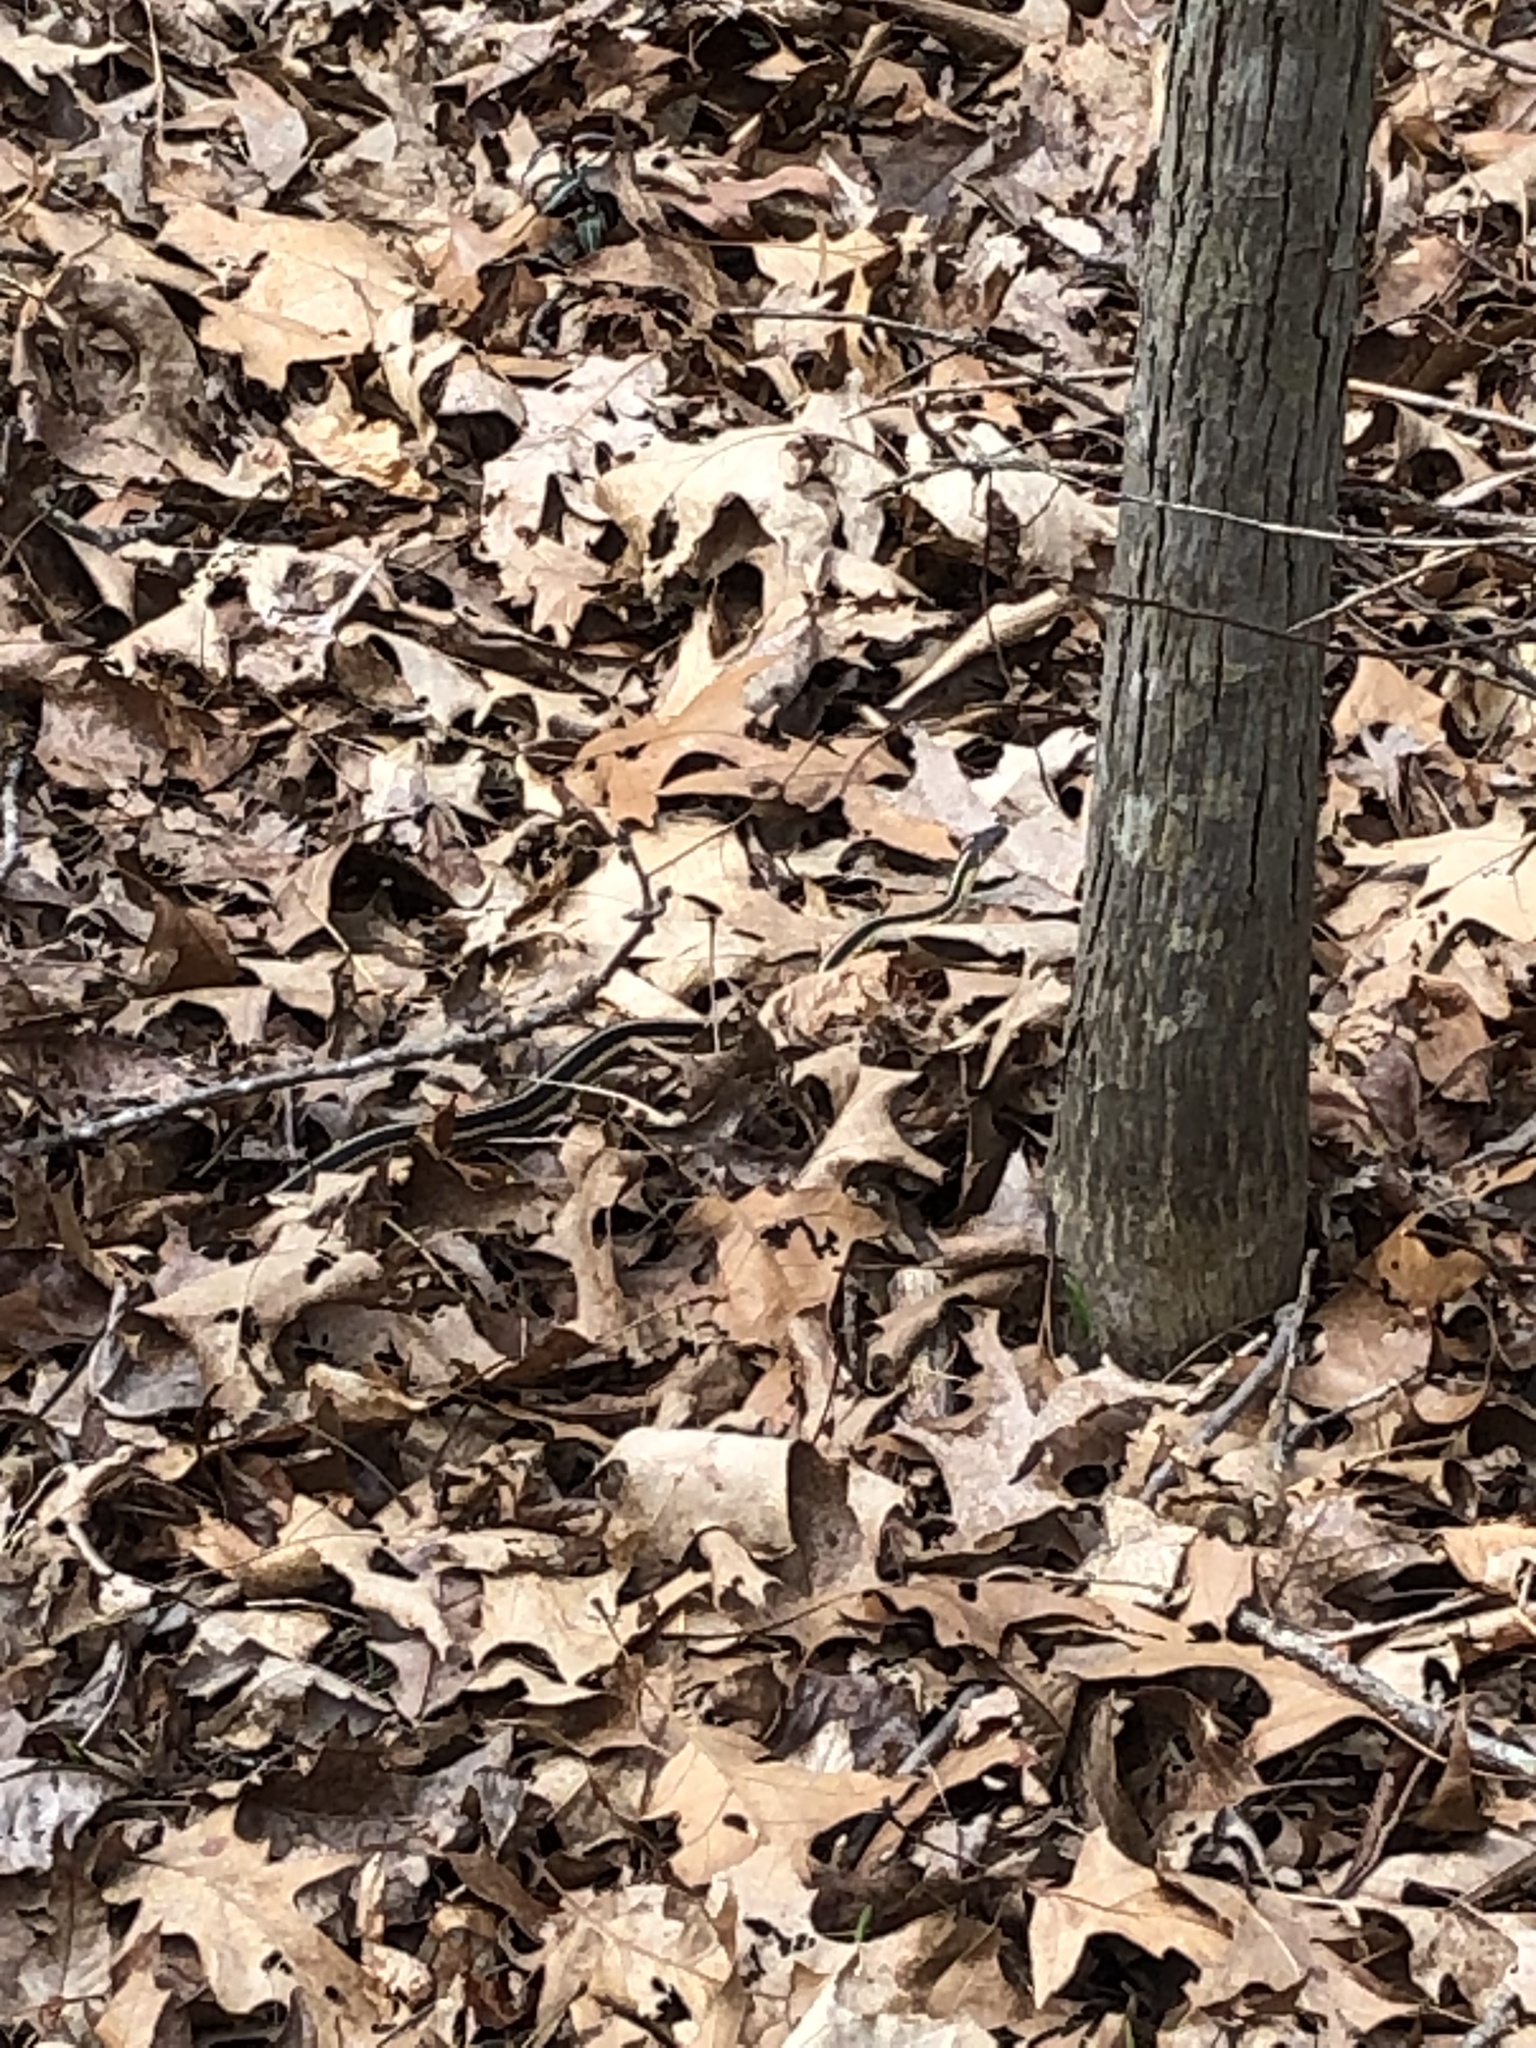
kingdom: Animalia
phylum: Chordata
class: Squamata
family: Colubridae
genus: Thamnophis
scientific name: Thamnophis sirtalis
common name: Common garter snake
